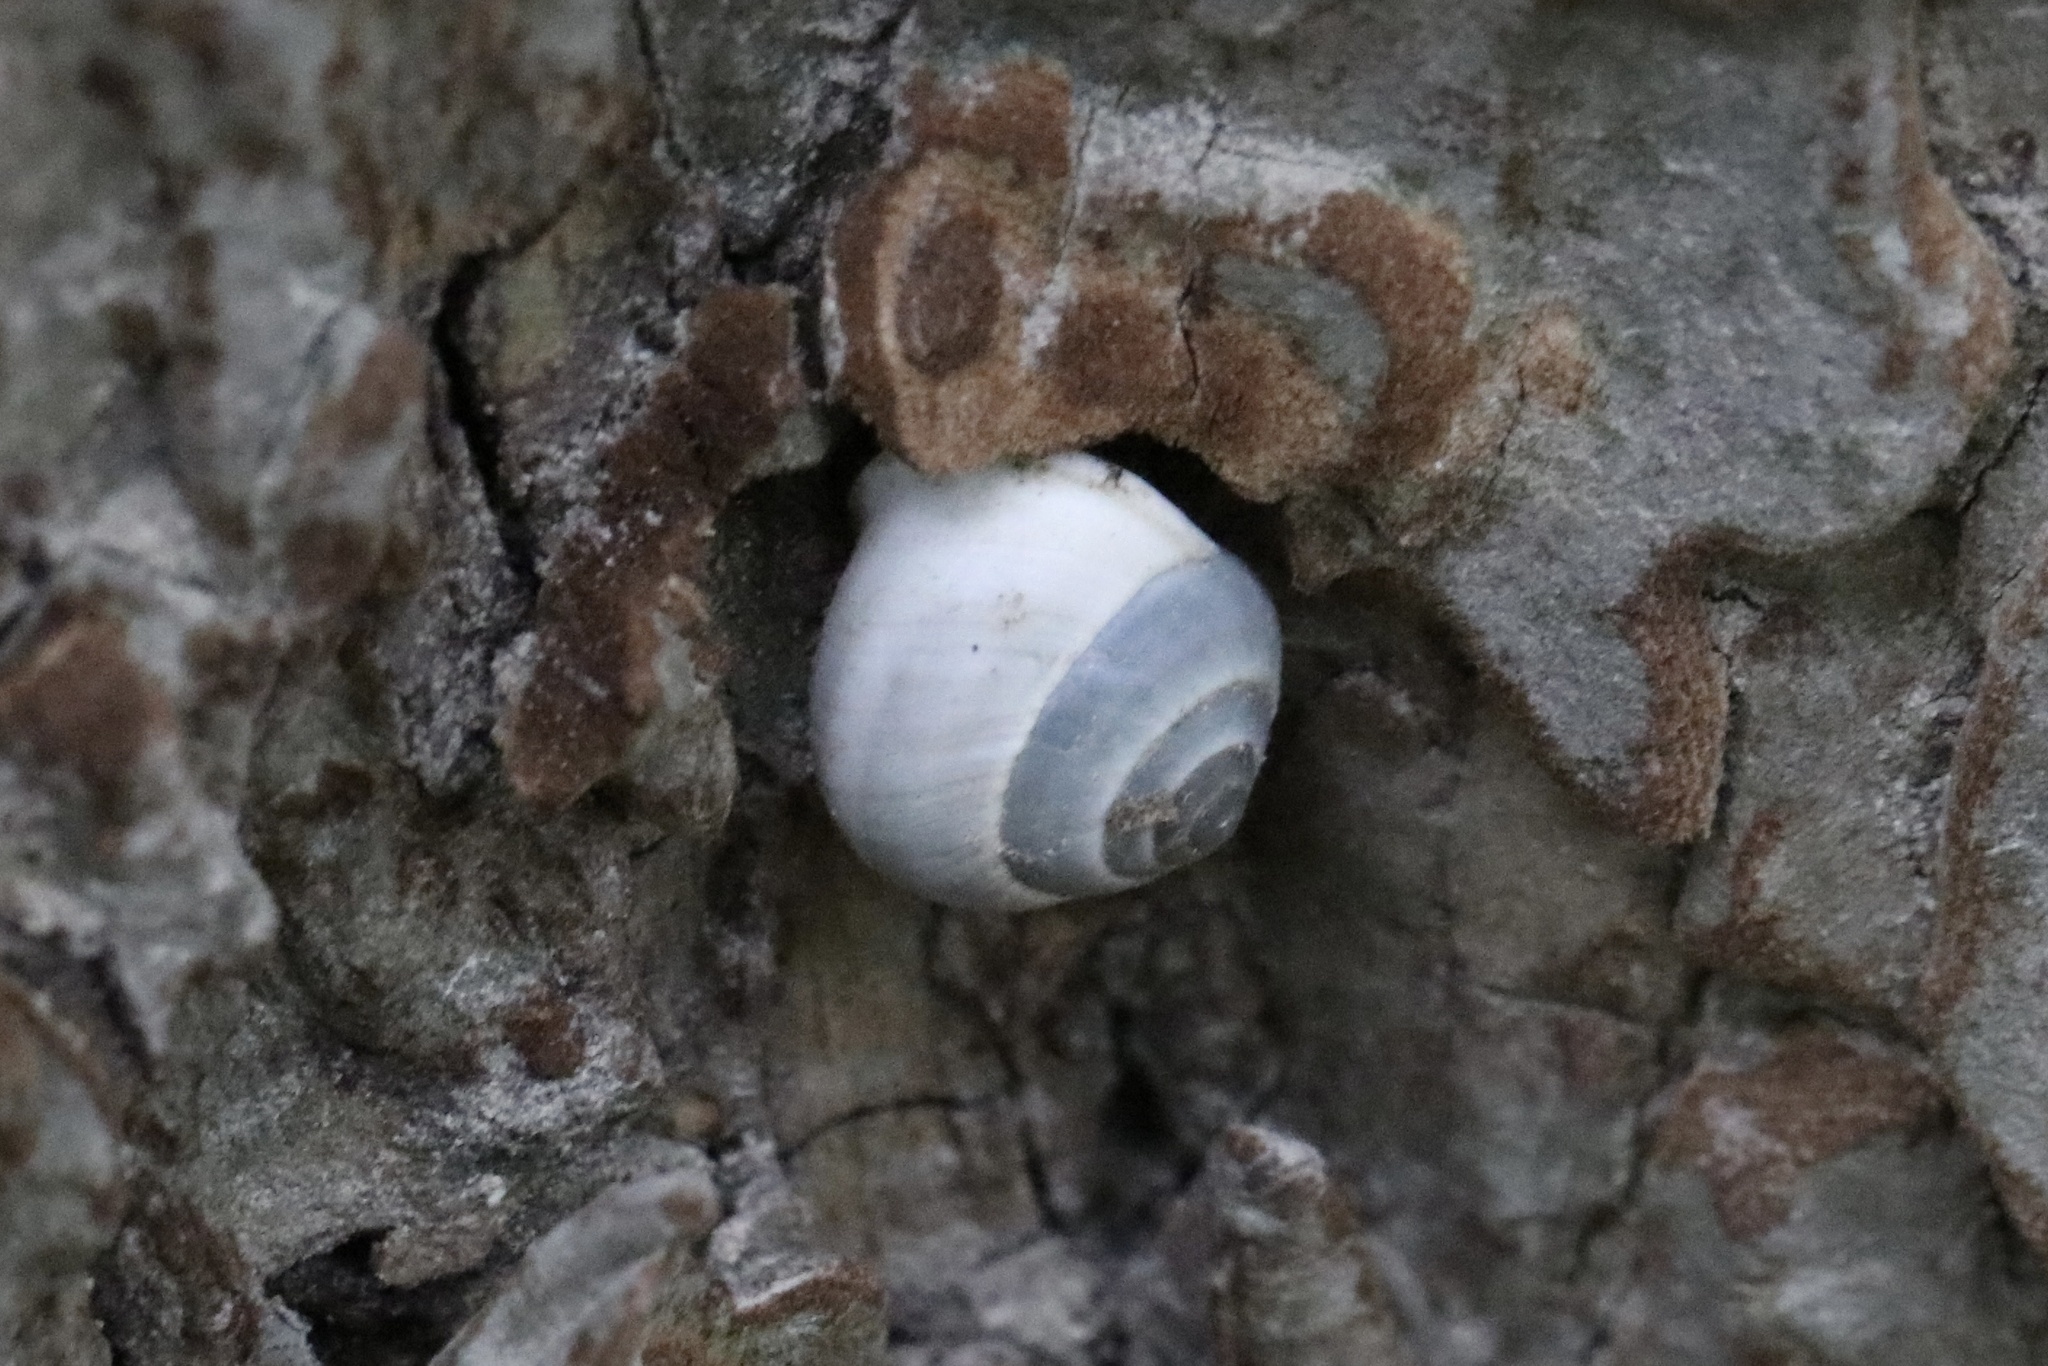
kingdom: Animalia
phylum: Mollusca
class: Gastropoda
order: Cycloneritida
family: Helicinidae
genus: Helicina
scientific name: Helicina orbiculata
